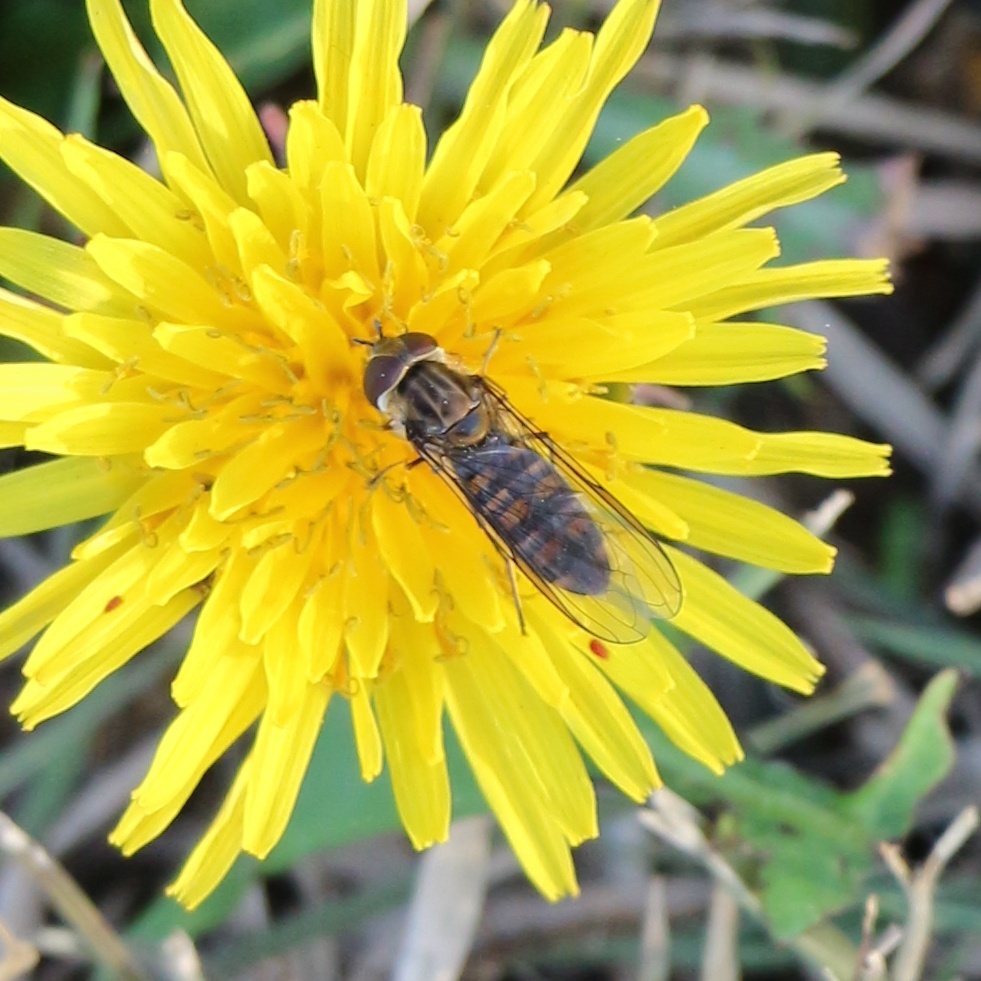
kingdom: Animalia
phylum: Arthropoda
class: Insecta
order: Diptera
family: Syrphidae
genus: Episyrphus
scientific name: Episyrphus balteatus
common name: Marmalade hoverfly
